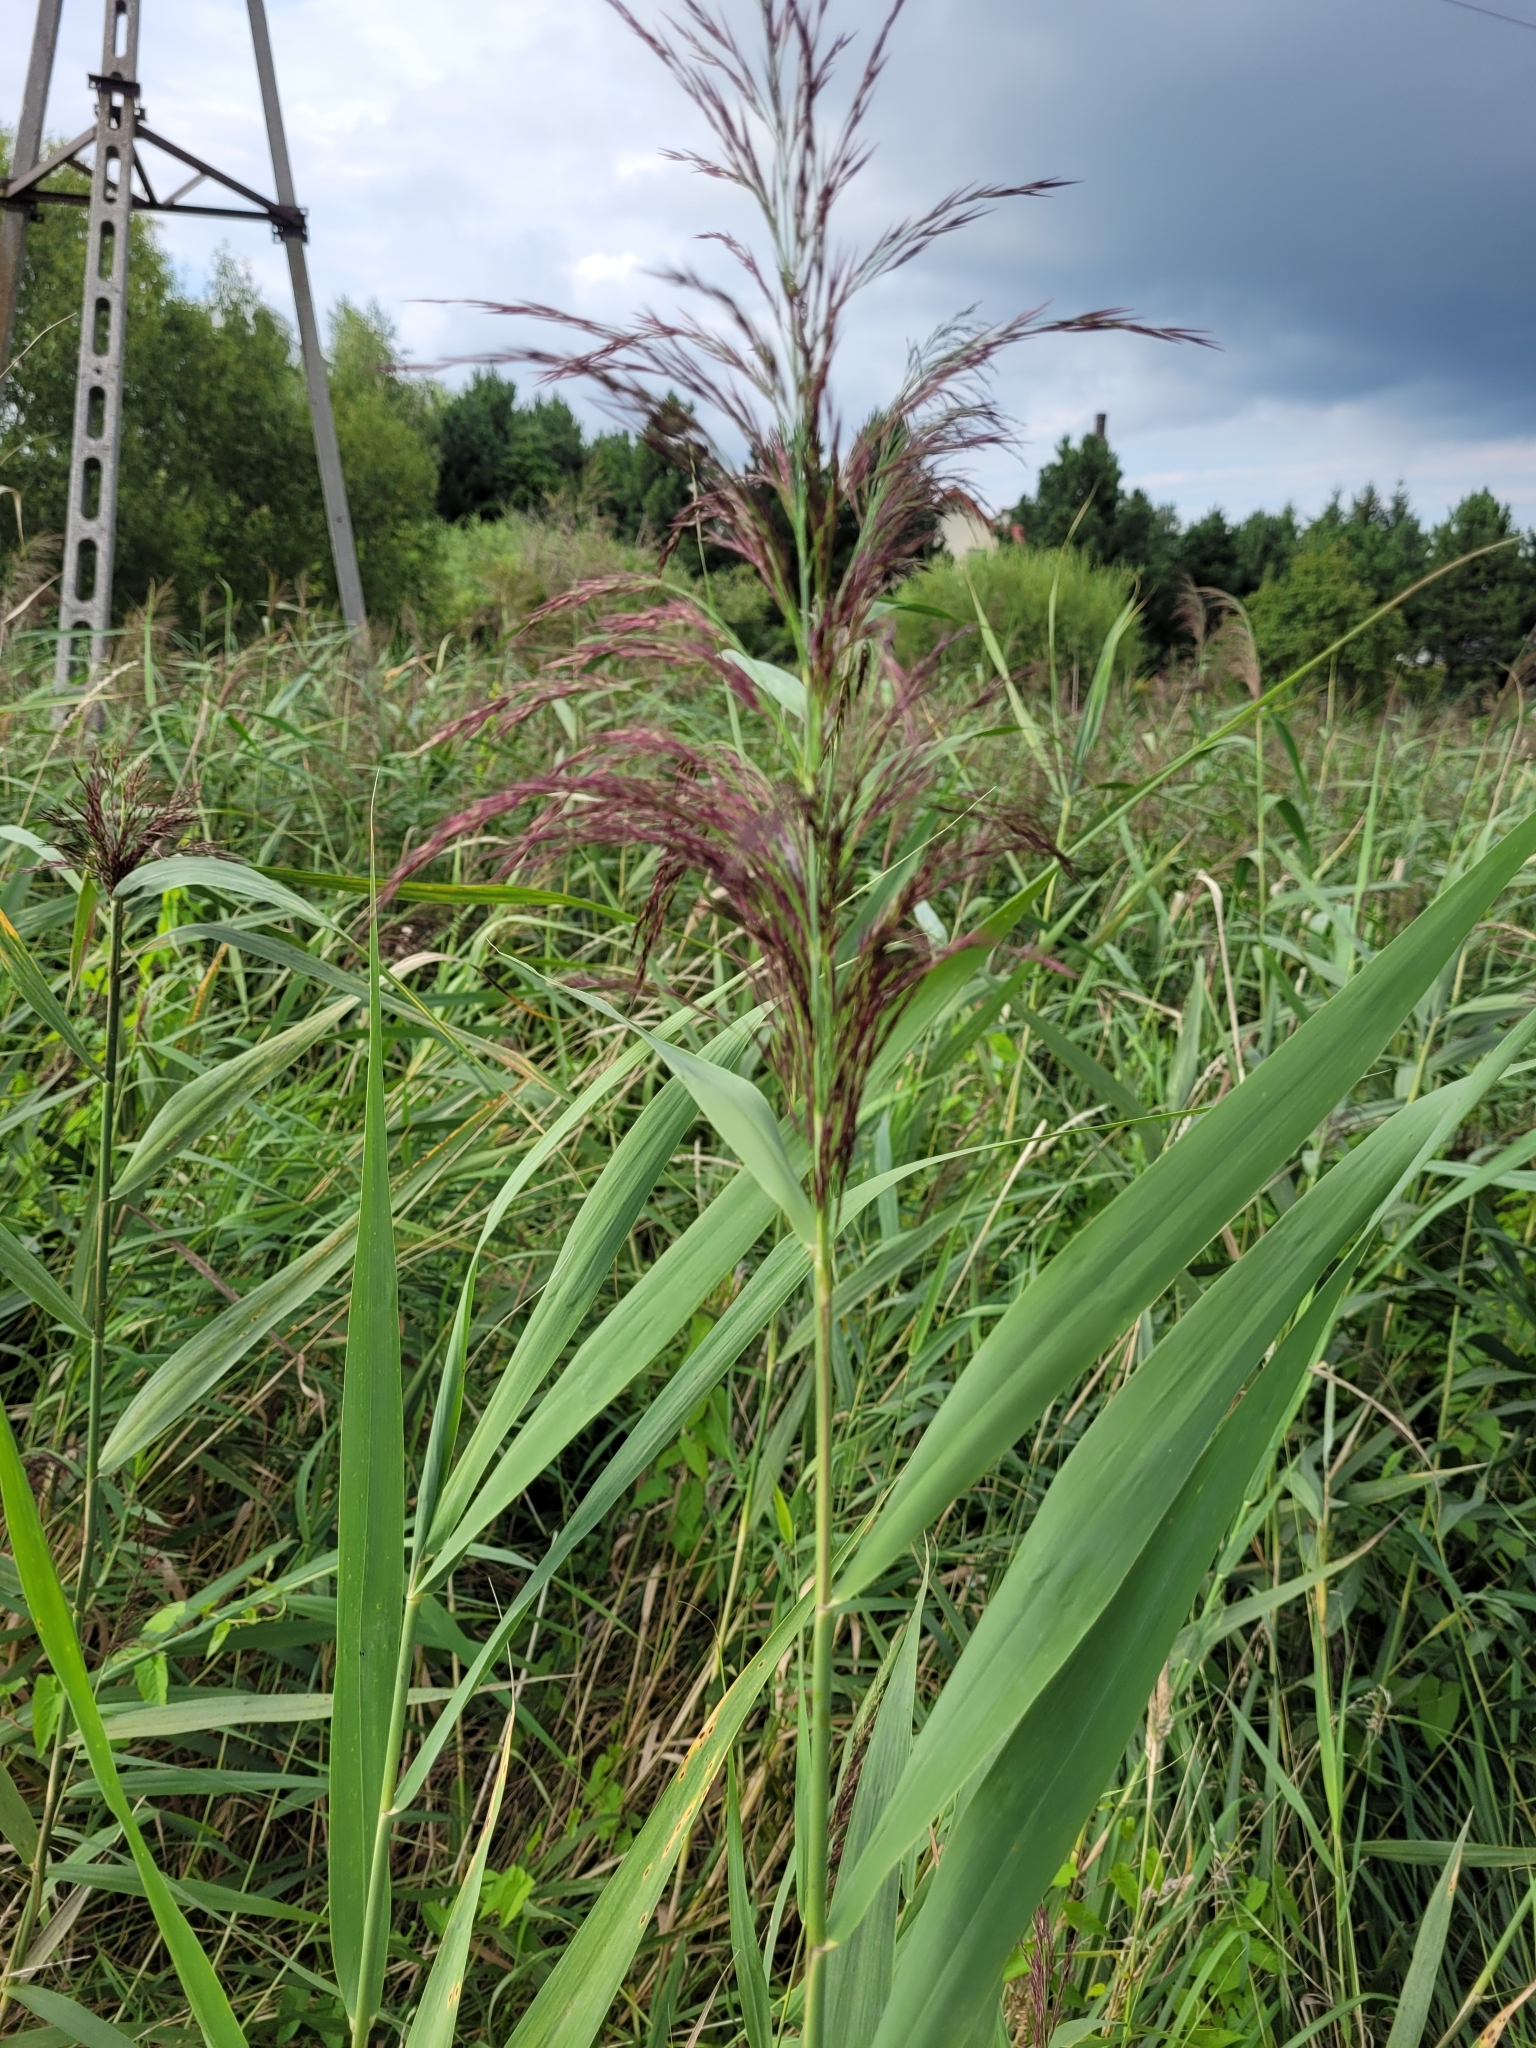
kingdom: Plantae
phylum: Tracheophyta
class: Liliopsida
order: Poales
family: Poaceae
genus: Phragmites
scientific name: Phragmites australis
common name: Common reed
